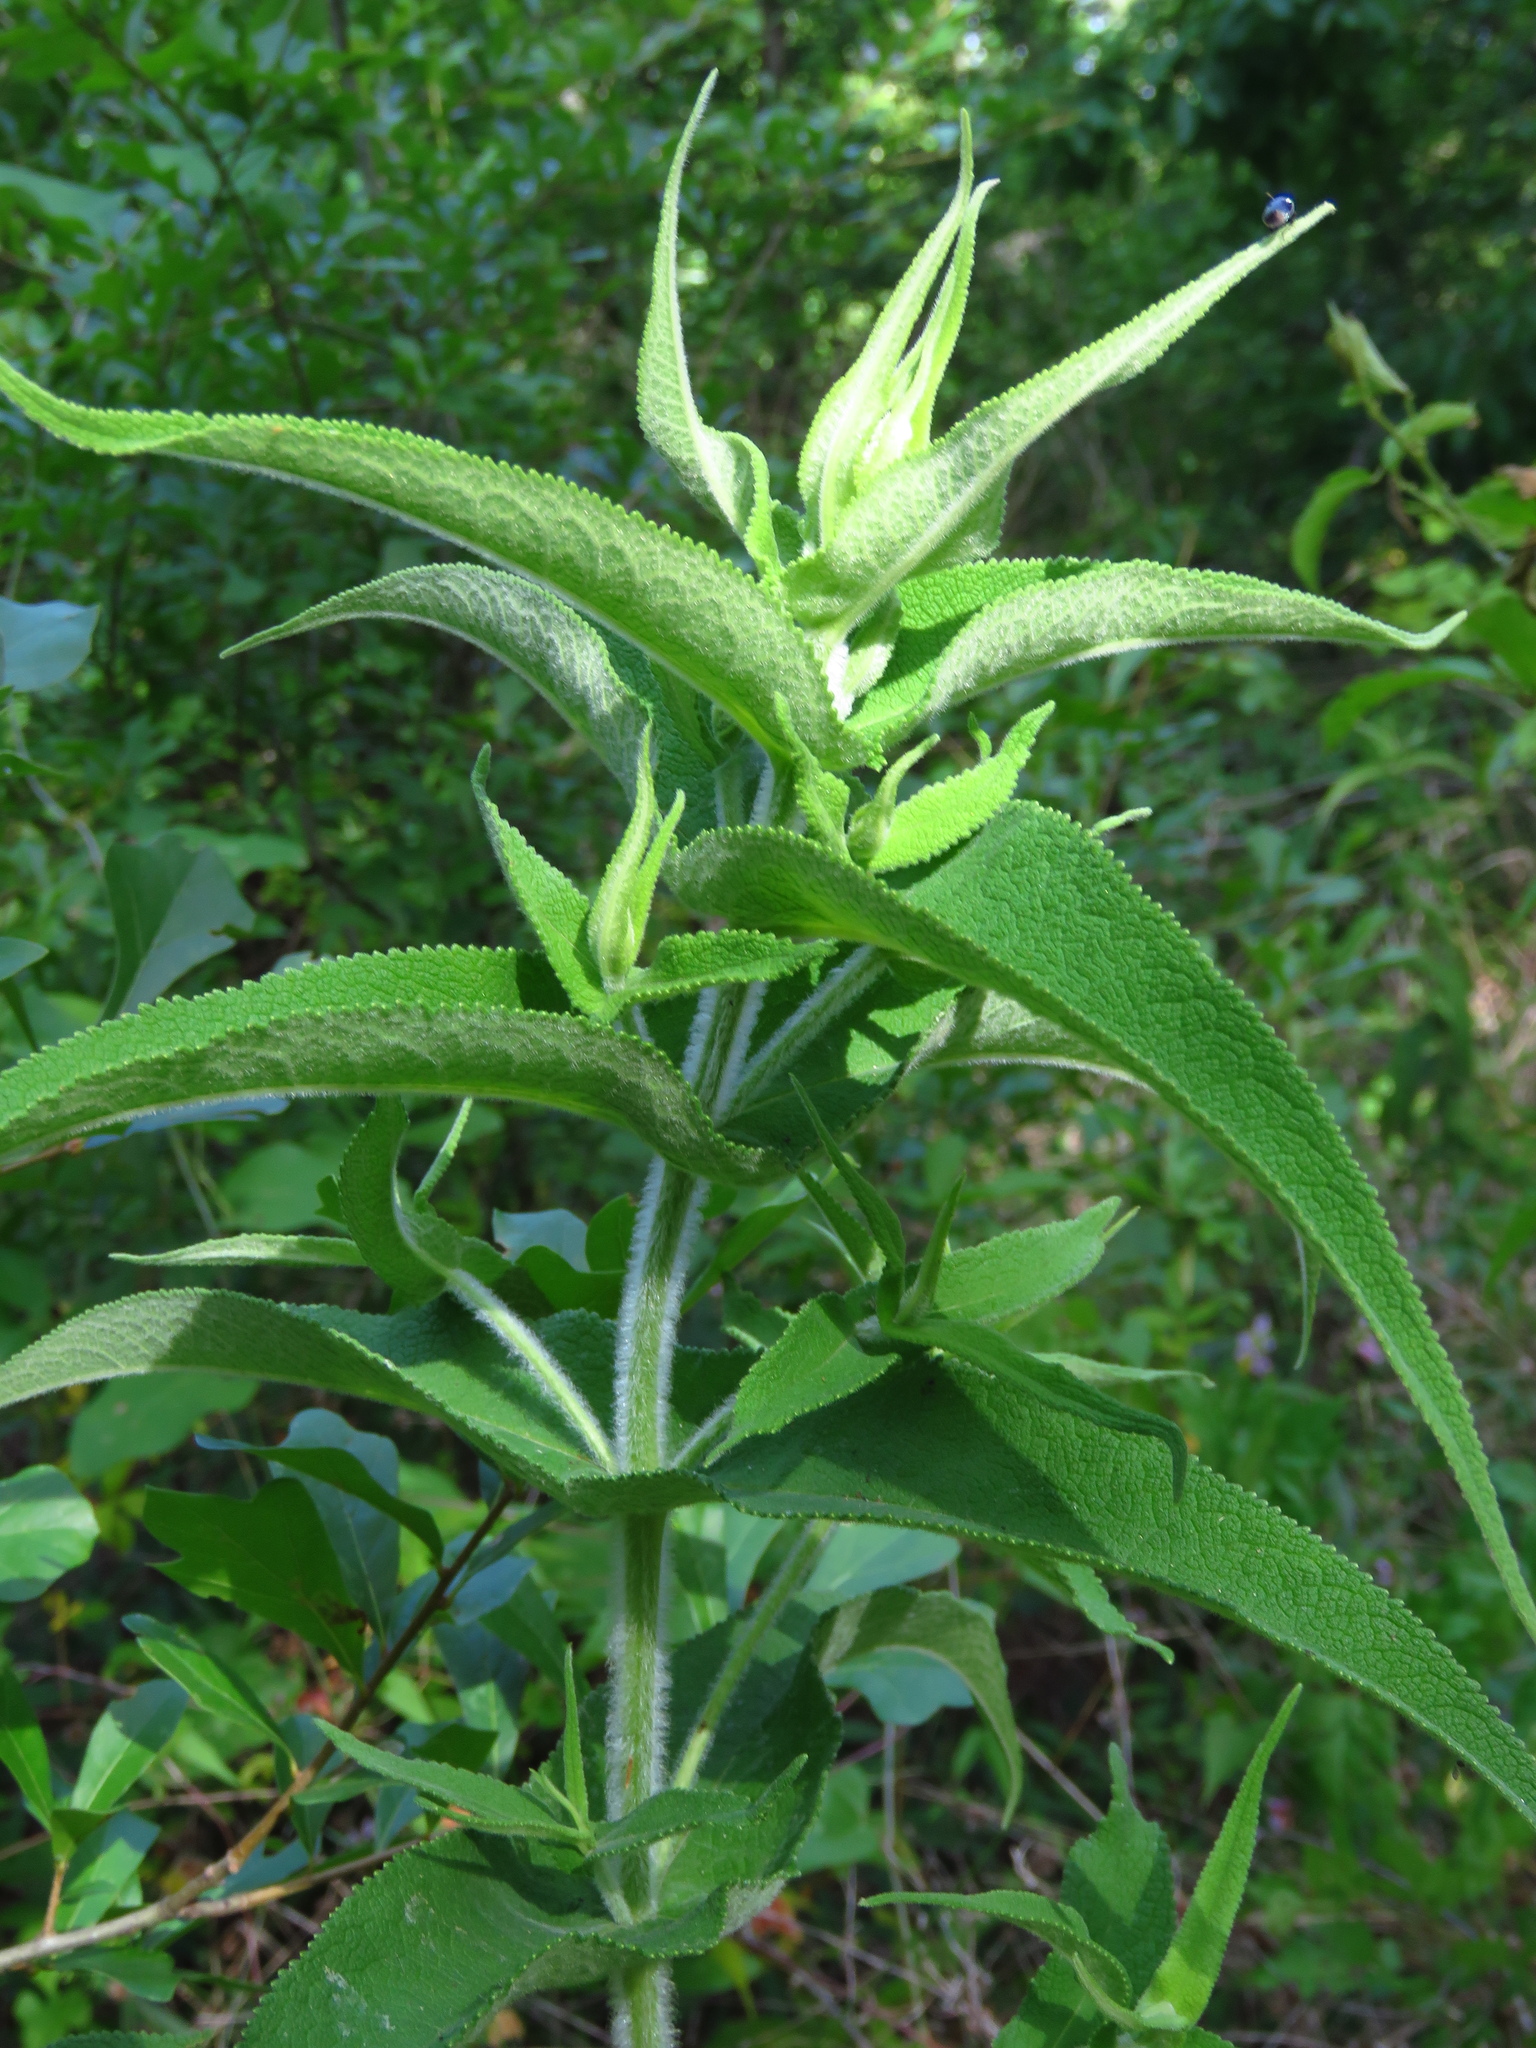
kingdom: Plantae
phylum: Tracheophyta
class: Magnoliopsida
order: Asterales
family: Asteraceae
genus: Eupatorium
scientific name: Eupatorium perfoliatum
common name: Boneset
